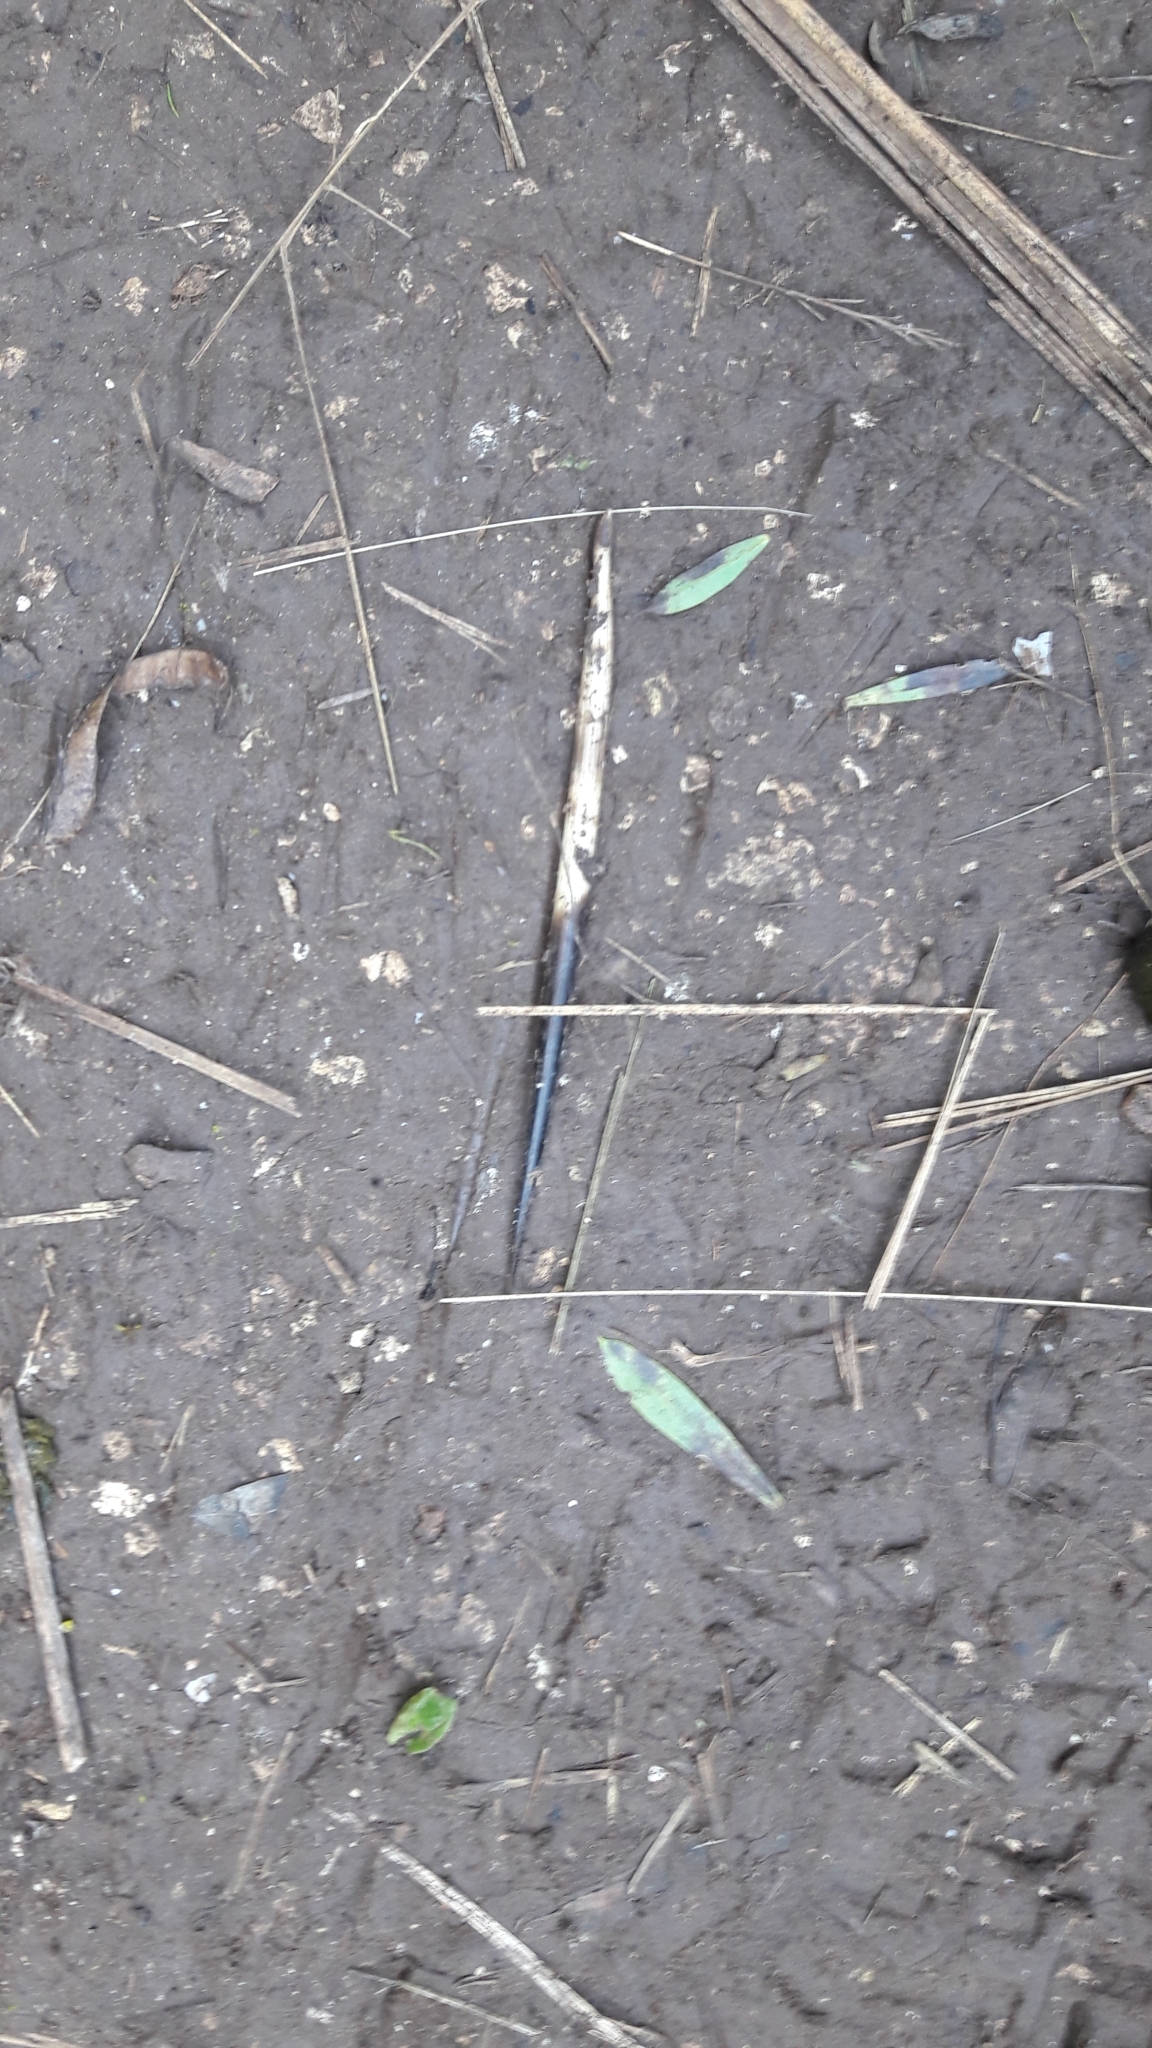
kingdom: Animalia
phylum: Chordata
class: Mammalia
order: Rodentia
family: Hystricidae
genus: Hystrix
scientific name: Hystrix cristata
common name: Crested porcupine
